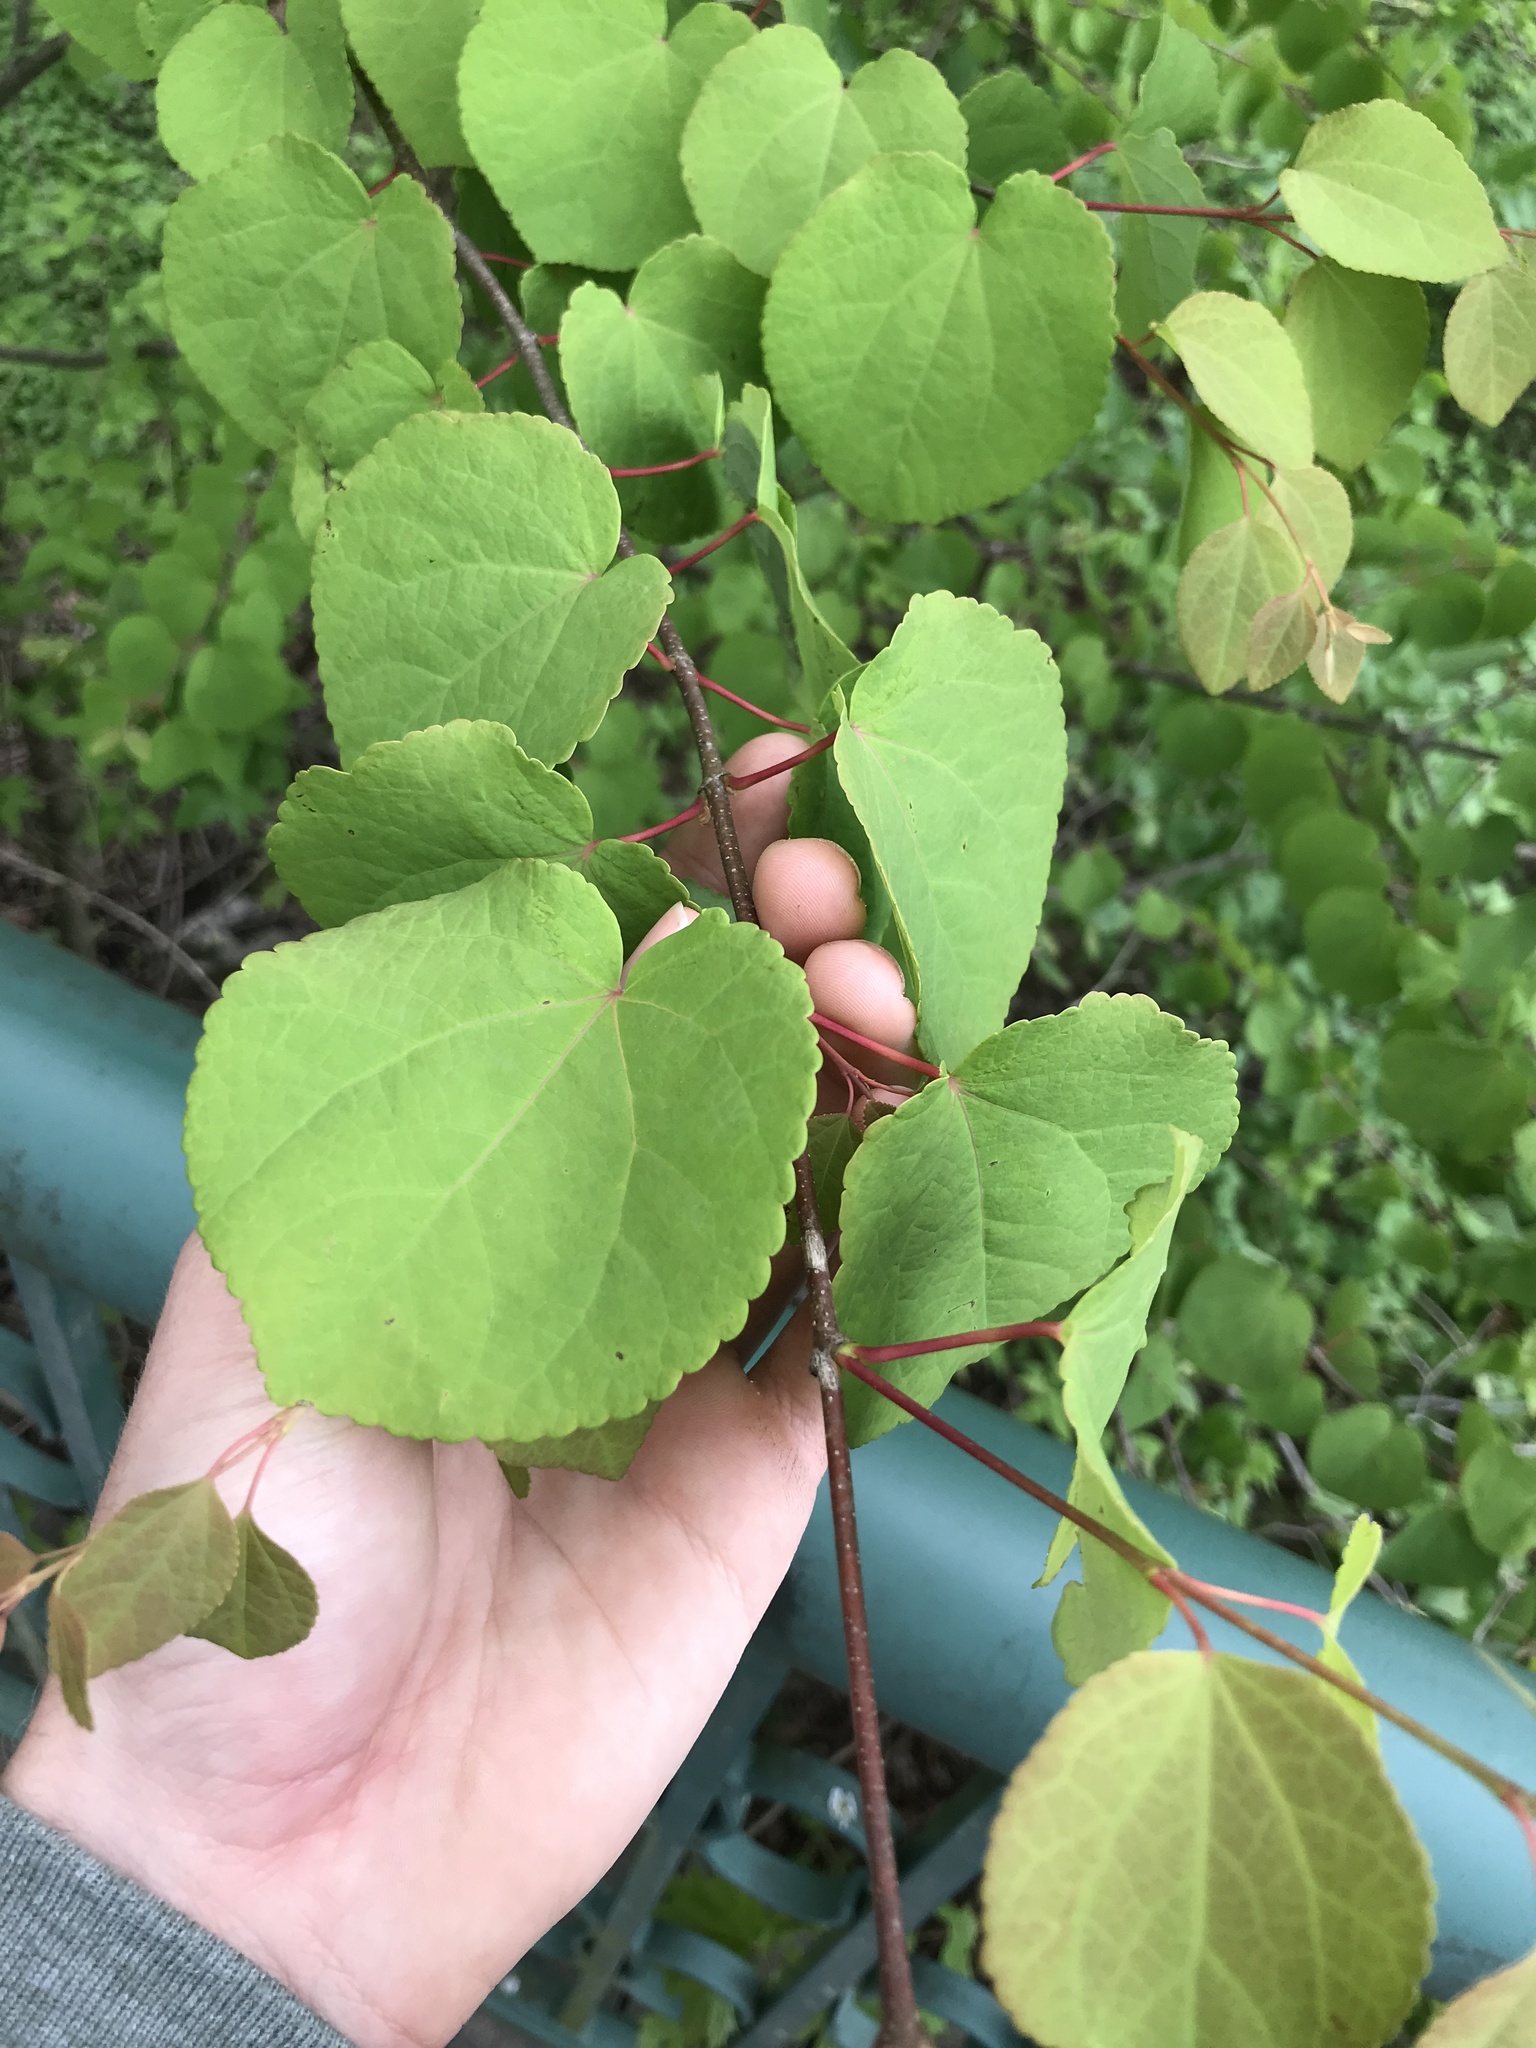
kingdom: Plantae
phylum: Tracheophyta
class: Magnoliopsida
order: Saxifragales
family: Cercidiphyllaceae
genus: Cercidiphyllum
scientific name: Cercidiphyllum japonicum
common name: Katsura tree
